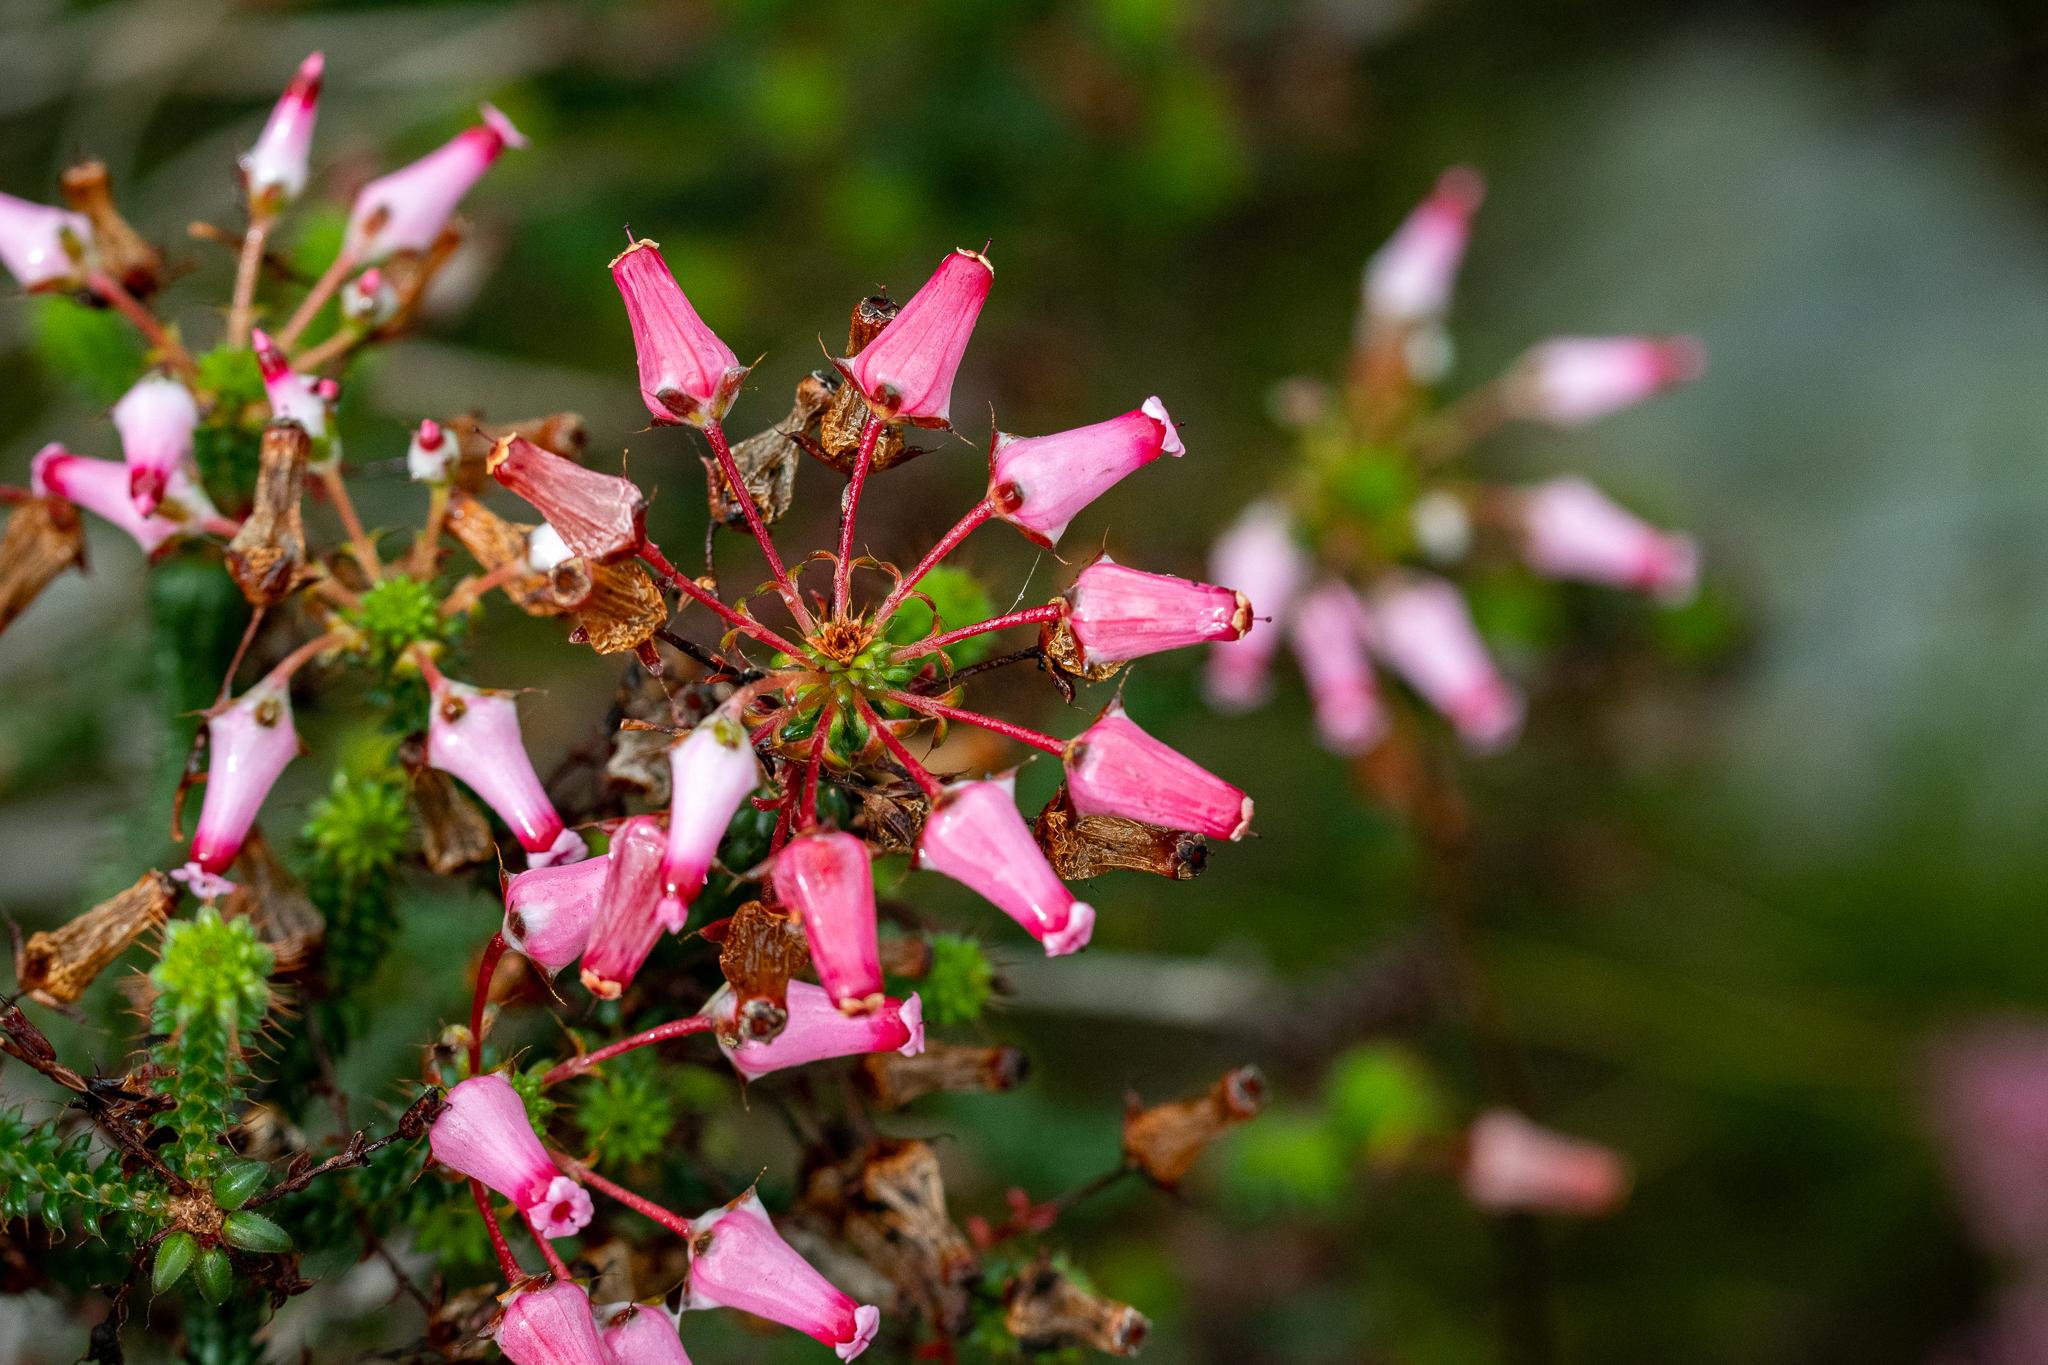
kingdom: Plantae
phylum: Tracheophyta
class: Magnoliopsida
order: Ericales
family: Ericaceae
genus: Erica
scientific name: Erica retorta
